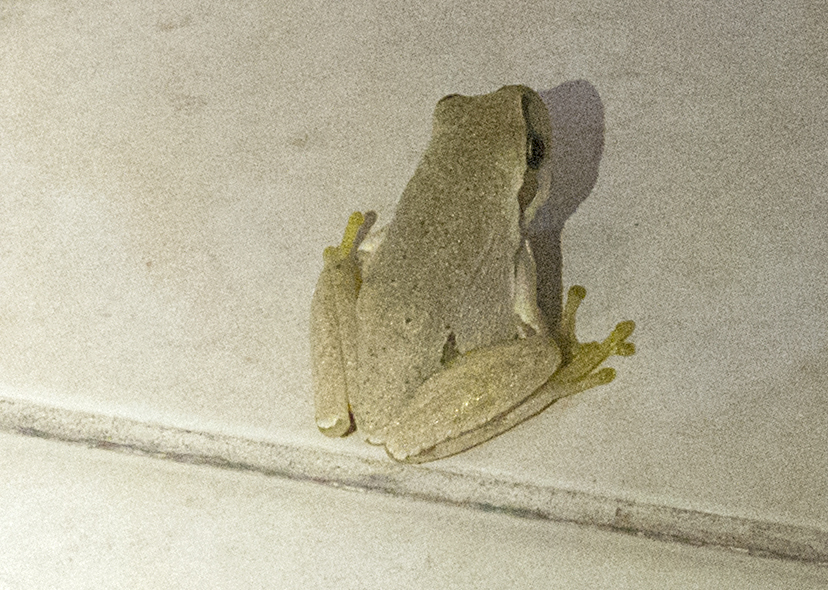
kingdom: Animalia
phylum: Chordata
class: Amphibia
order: Anura
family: Hylidae
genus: Hyla
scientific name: Hyla orientalis
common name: Caucasian treefrog
